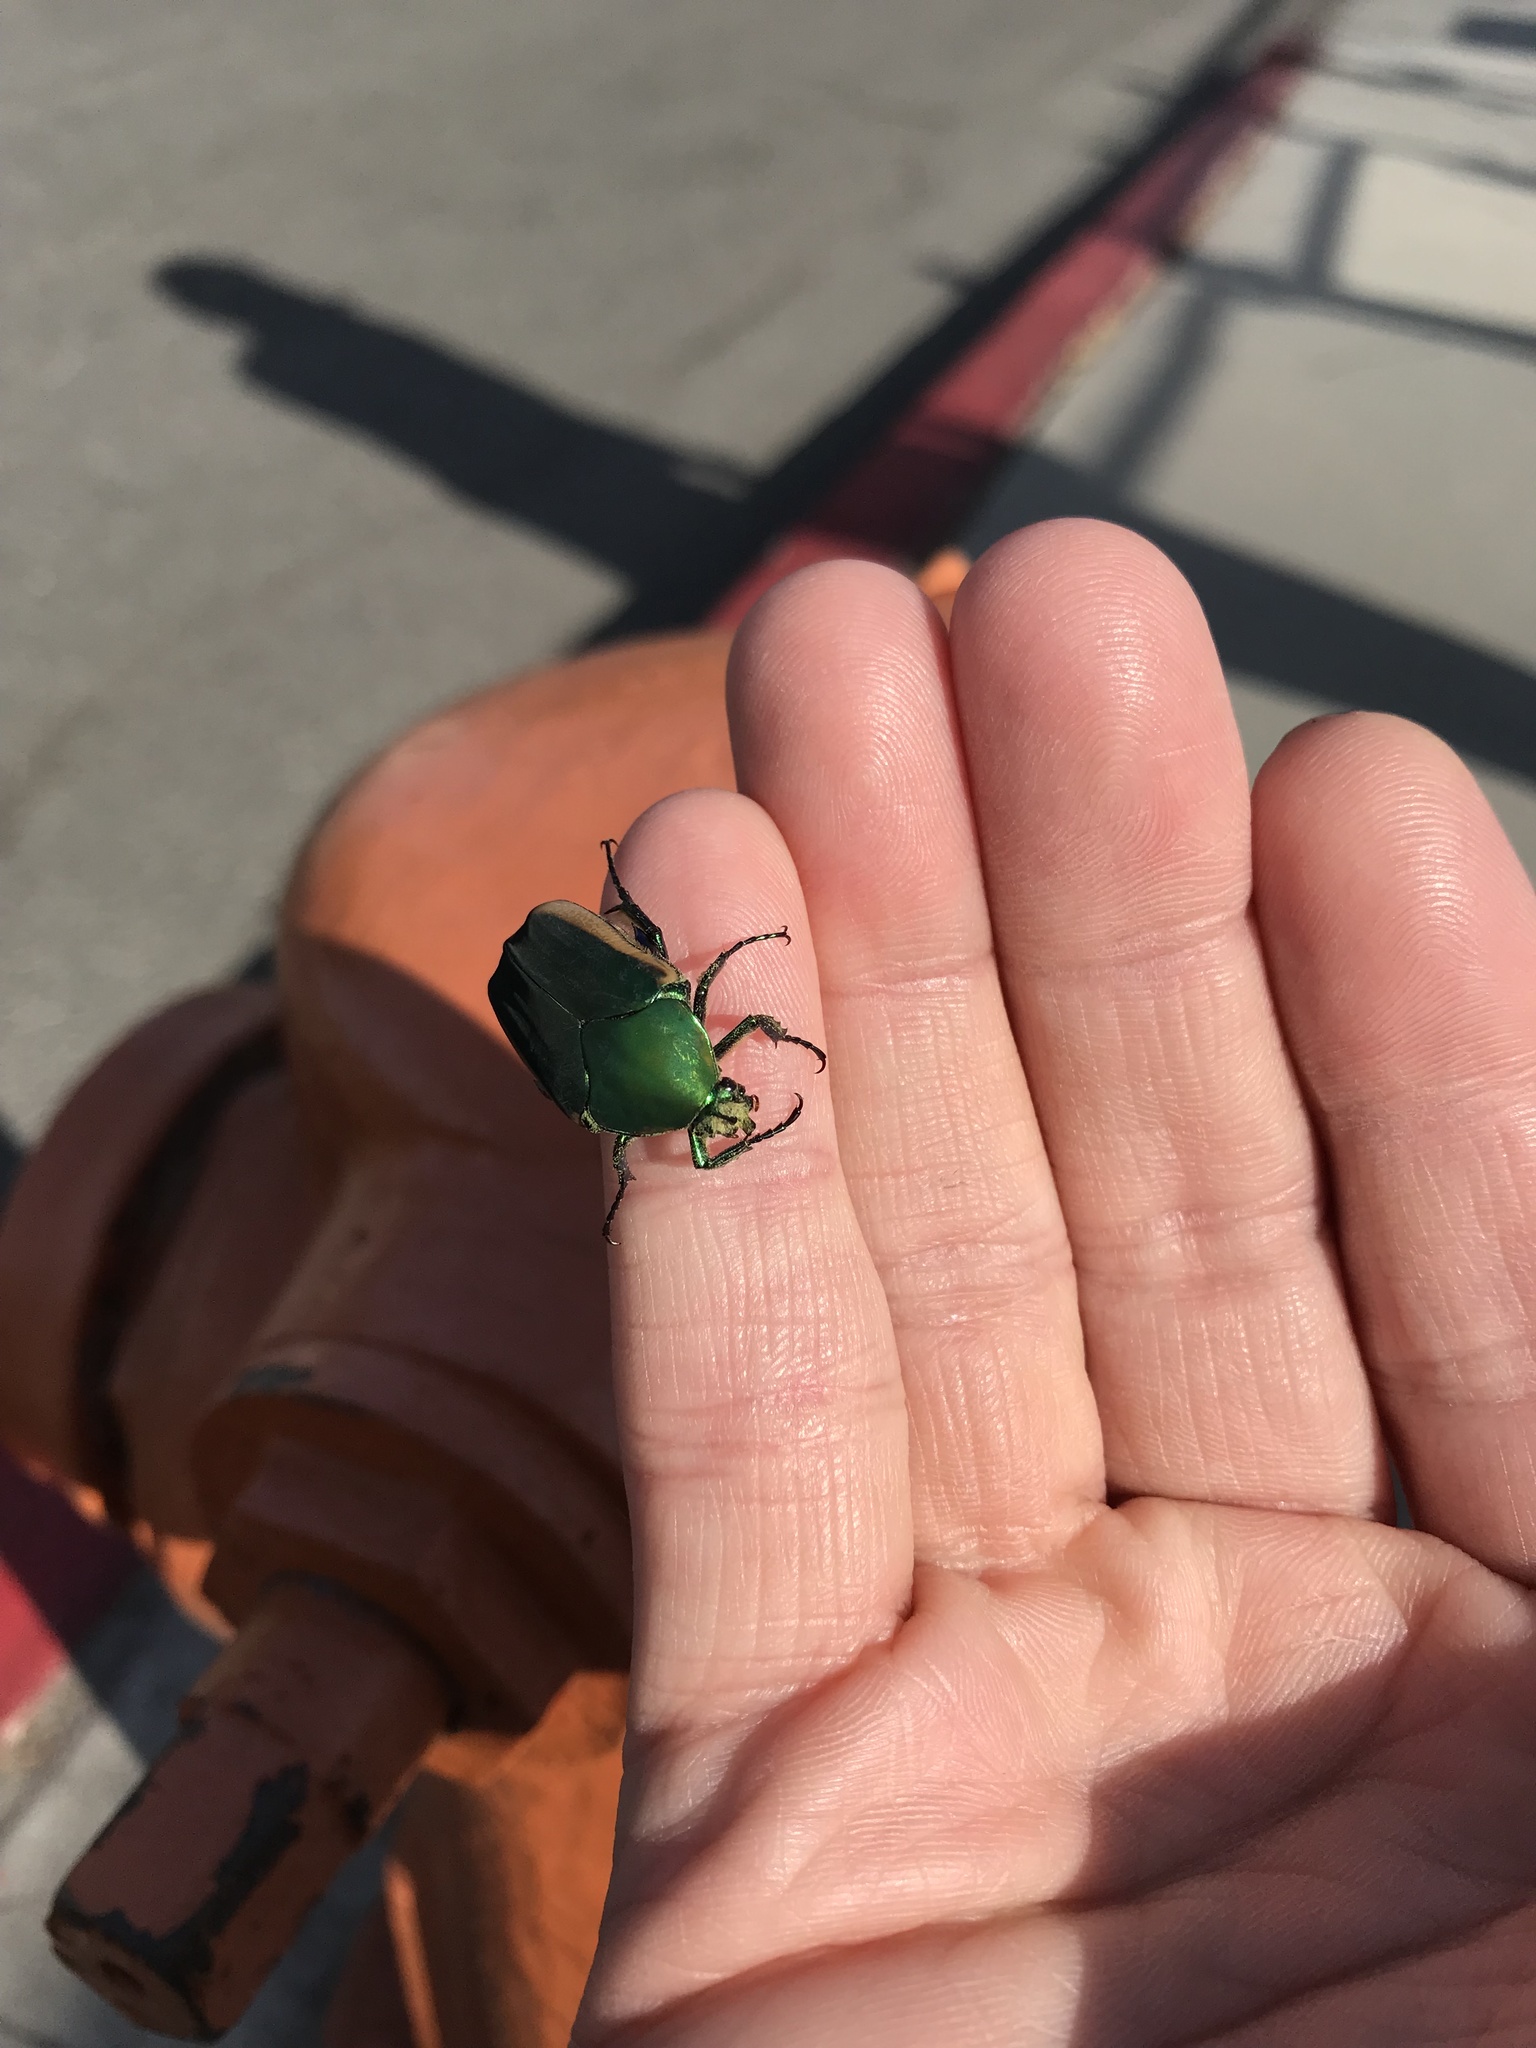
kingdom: Animalia
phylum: Arthropoda
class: Insecta
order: Coleoptera
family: Scarabaeidae
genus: Cotinis
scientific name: Cotinis mutabilis
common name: Figeater beetle
